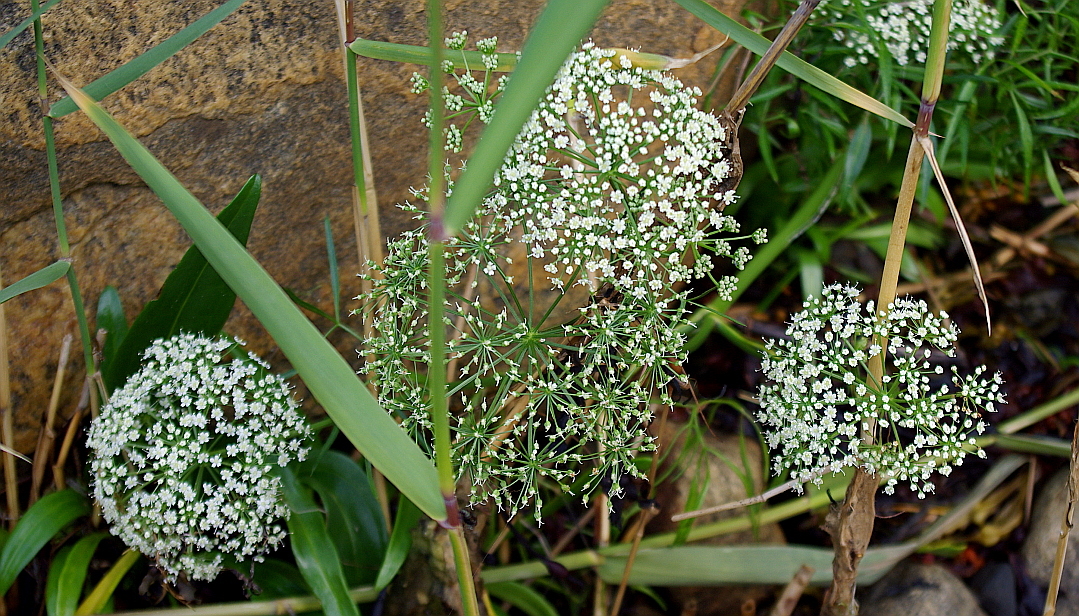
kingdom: Plantae
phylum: Tracheophyta
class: Magnoliopsida
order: Apiales
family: Apiaceae
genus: Cenolophium
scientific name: Cenolophium fischeri
